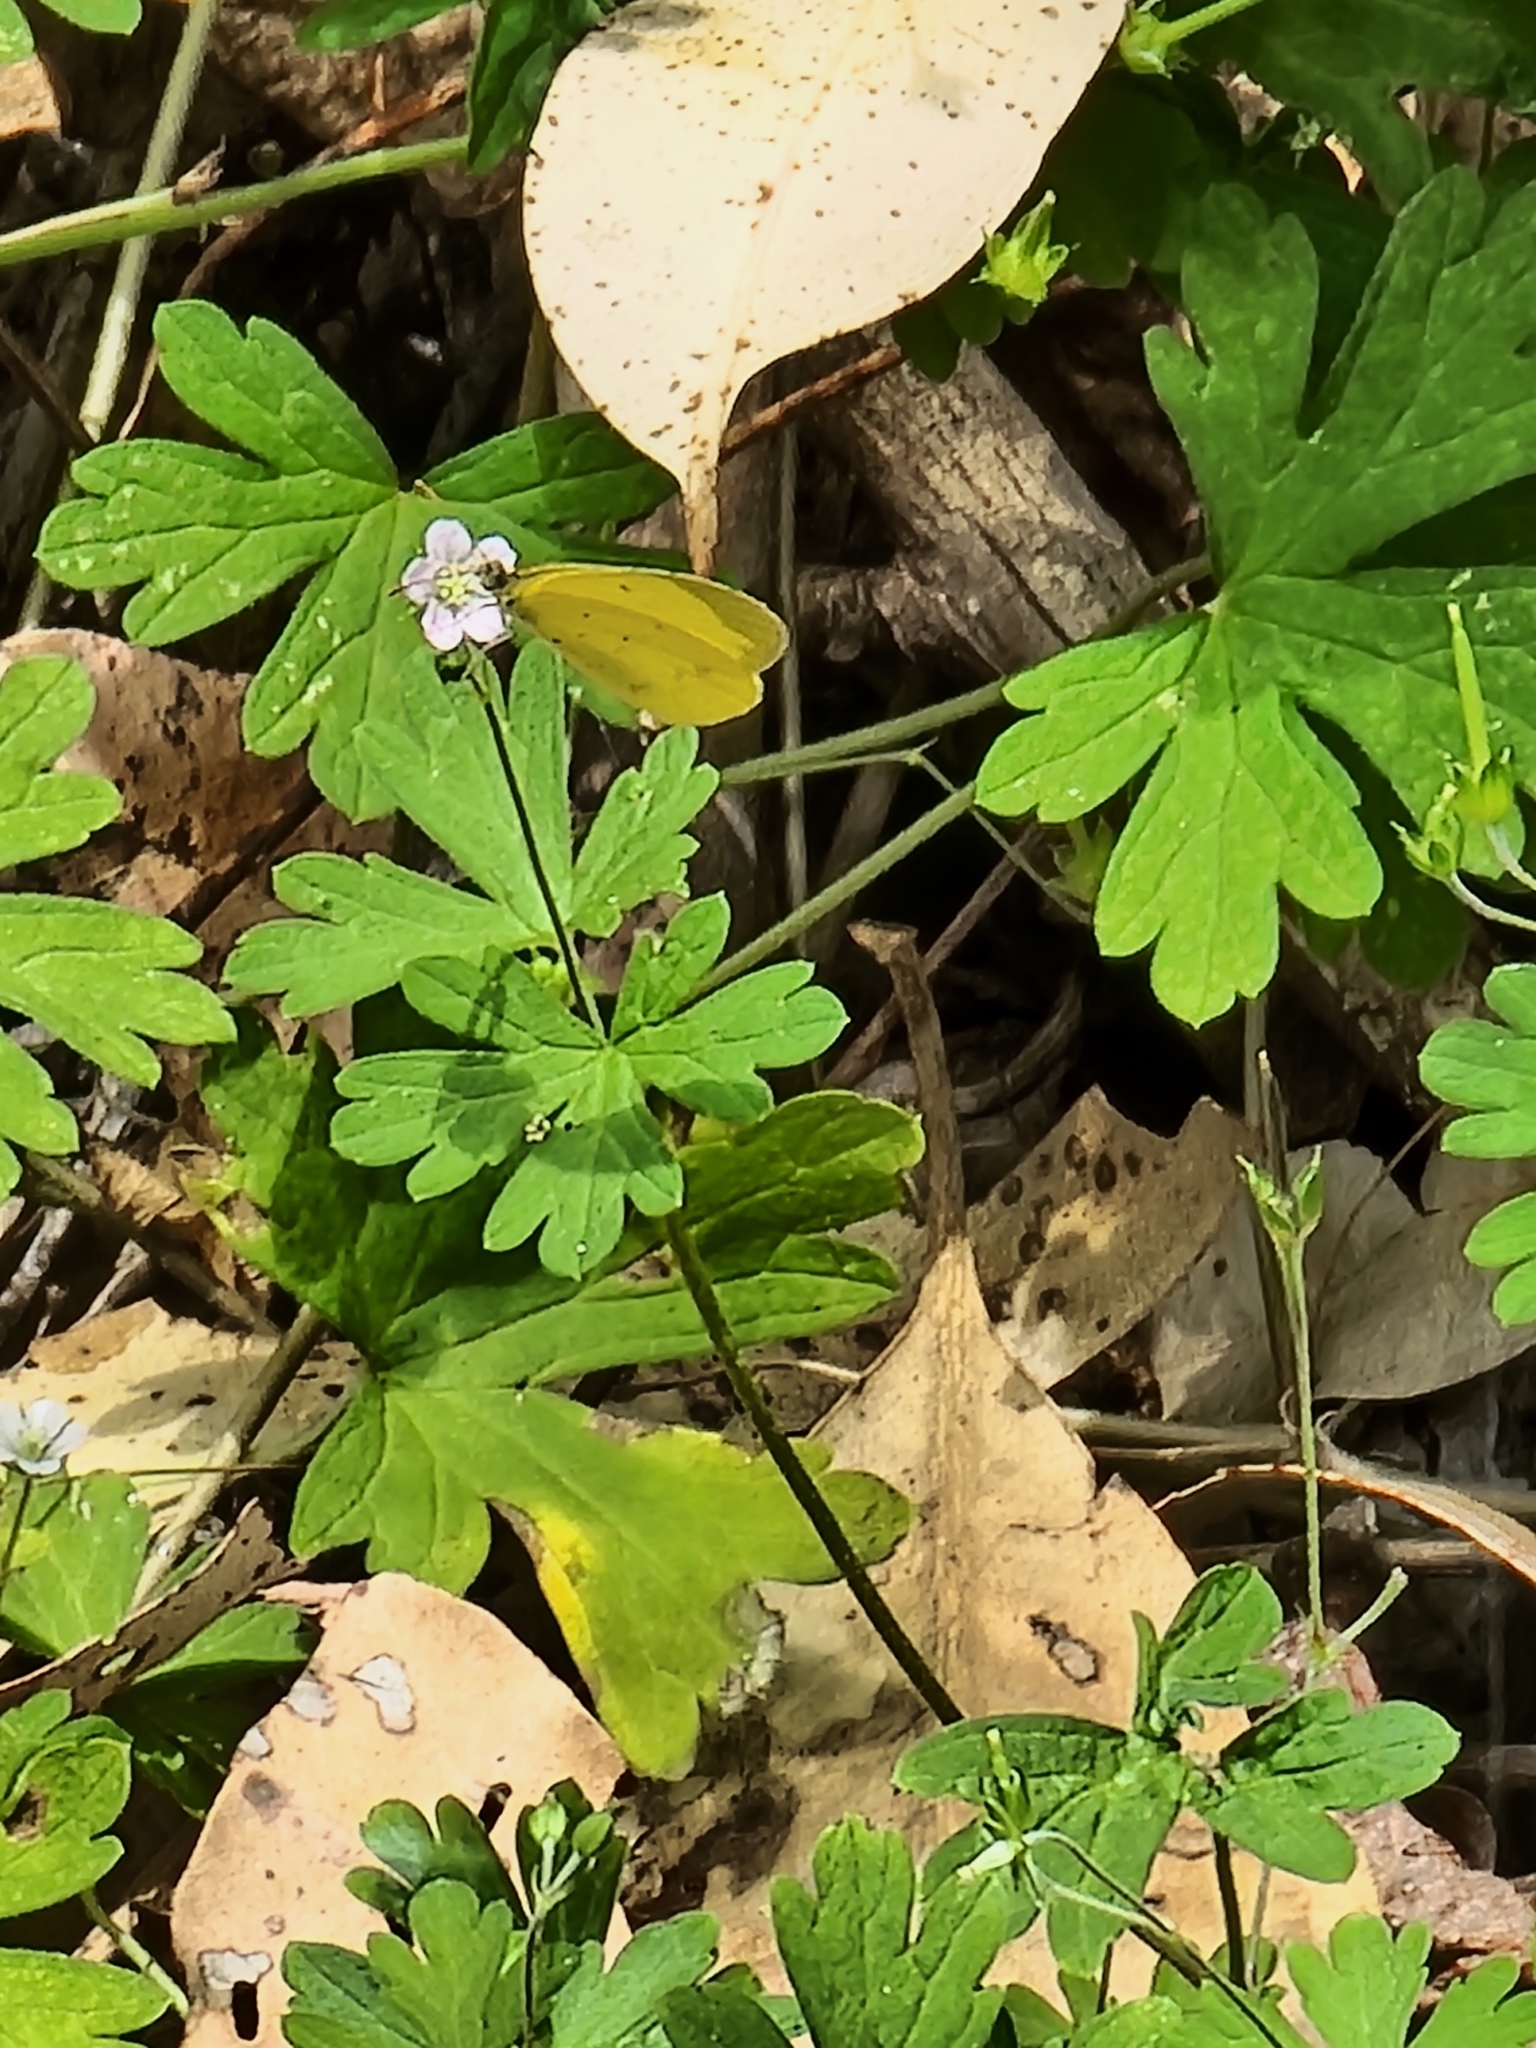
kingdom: Animalia
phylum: Arthropoda
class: Insecta
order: Lepidoptera
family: Pieridae
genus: Eurema
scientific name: Eurema smilax
